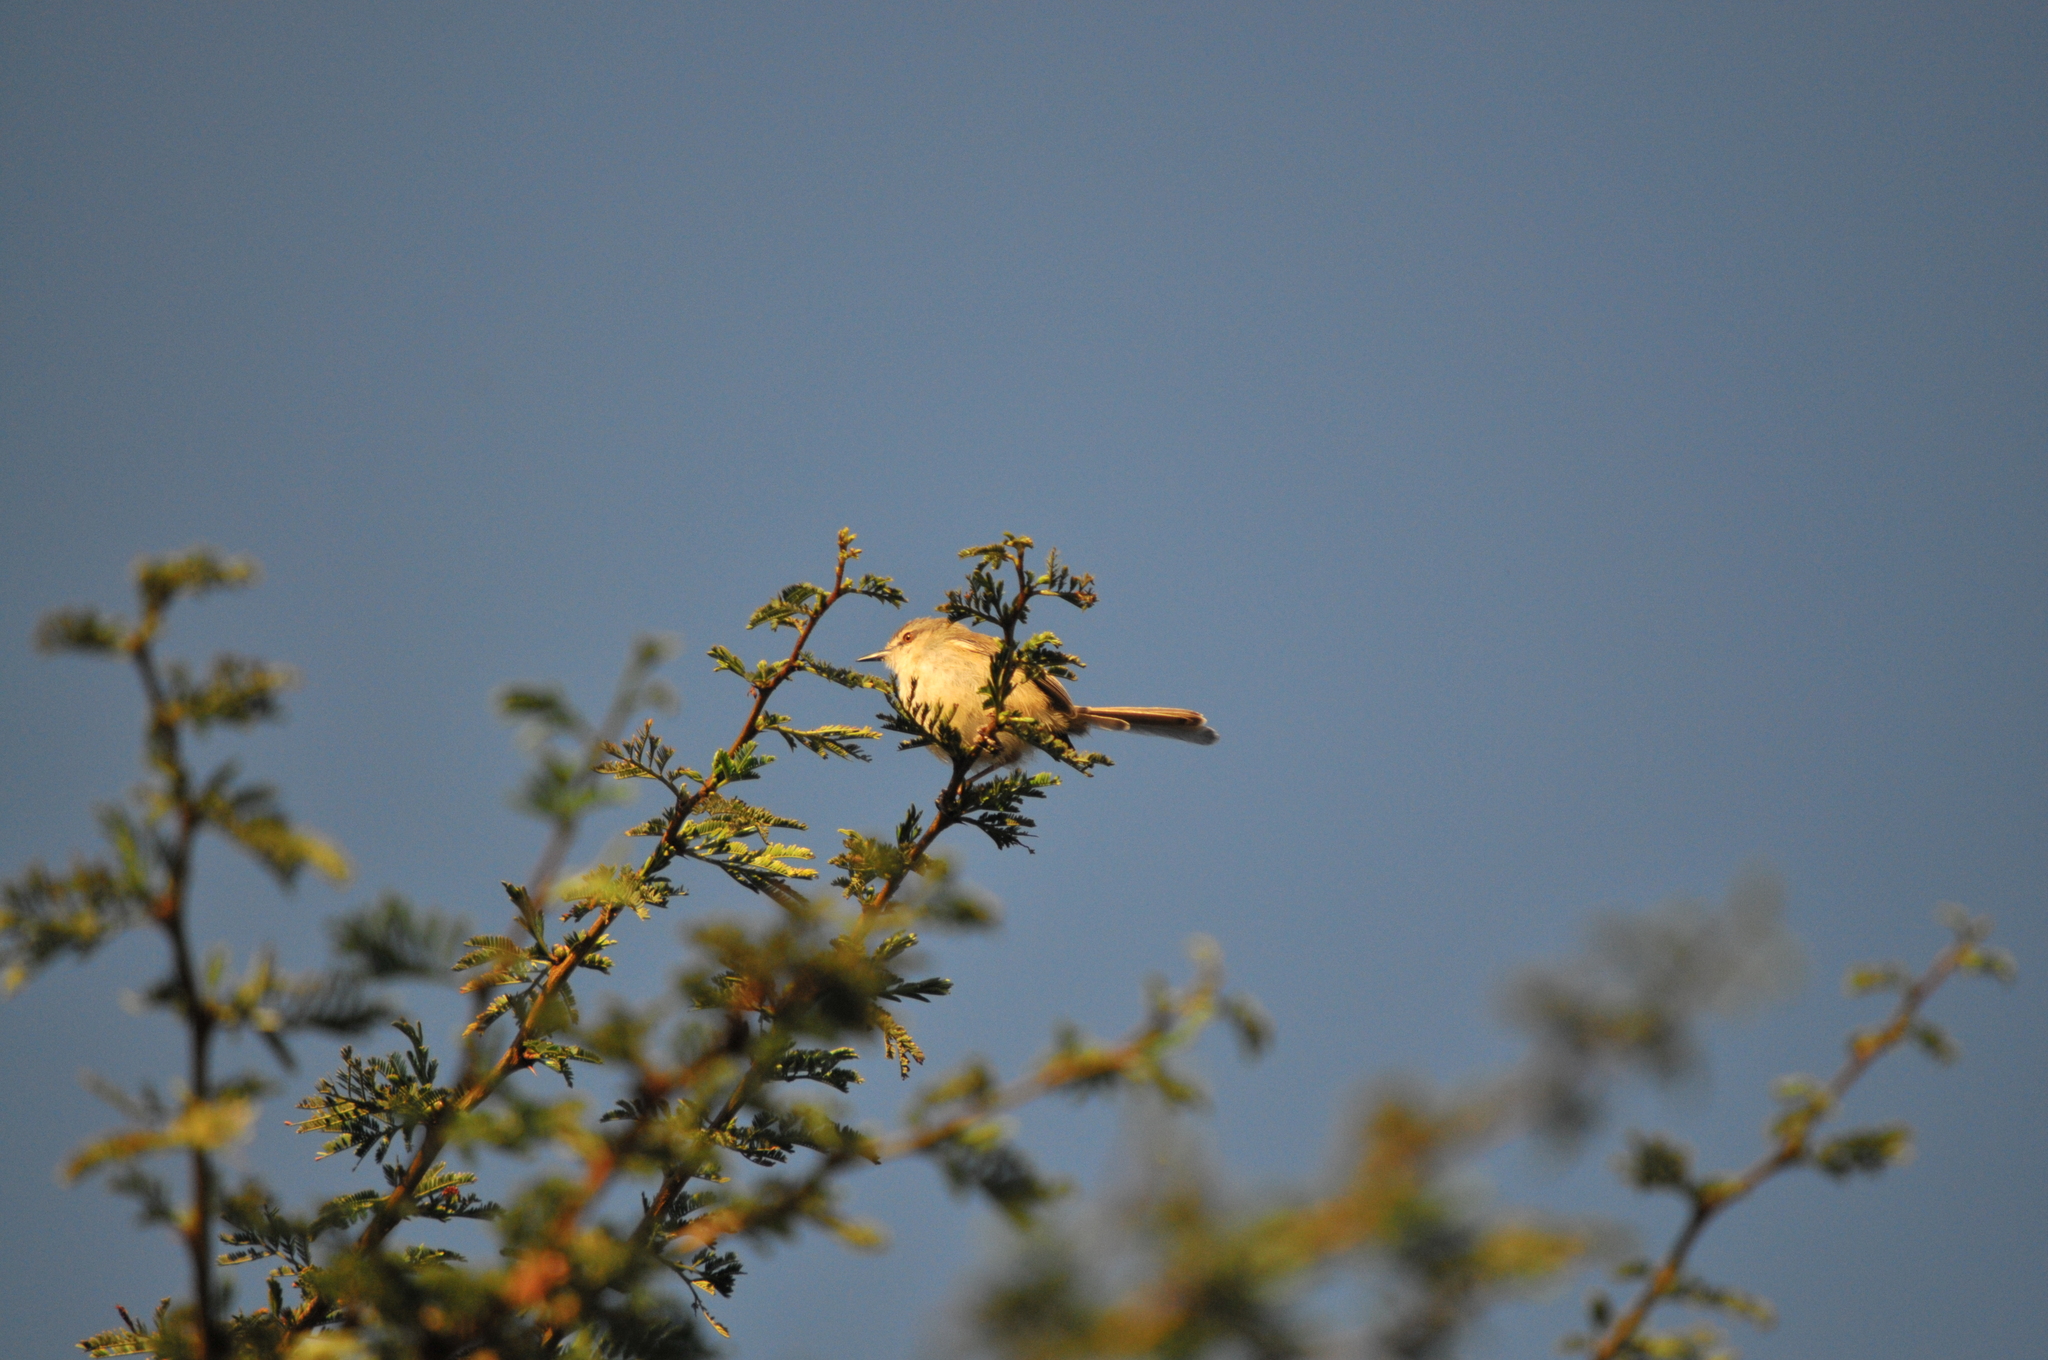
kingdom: Animalia
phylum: Chordata
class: Aves
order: Passeriformes
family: Cisticolidae
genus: Prinia
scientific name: Prinia subflava
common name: Tawny-flanked prinia
